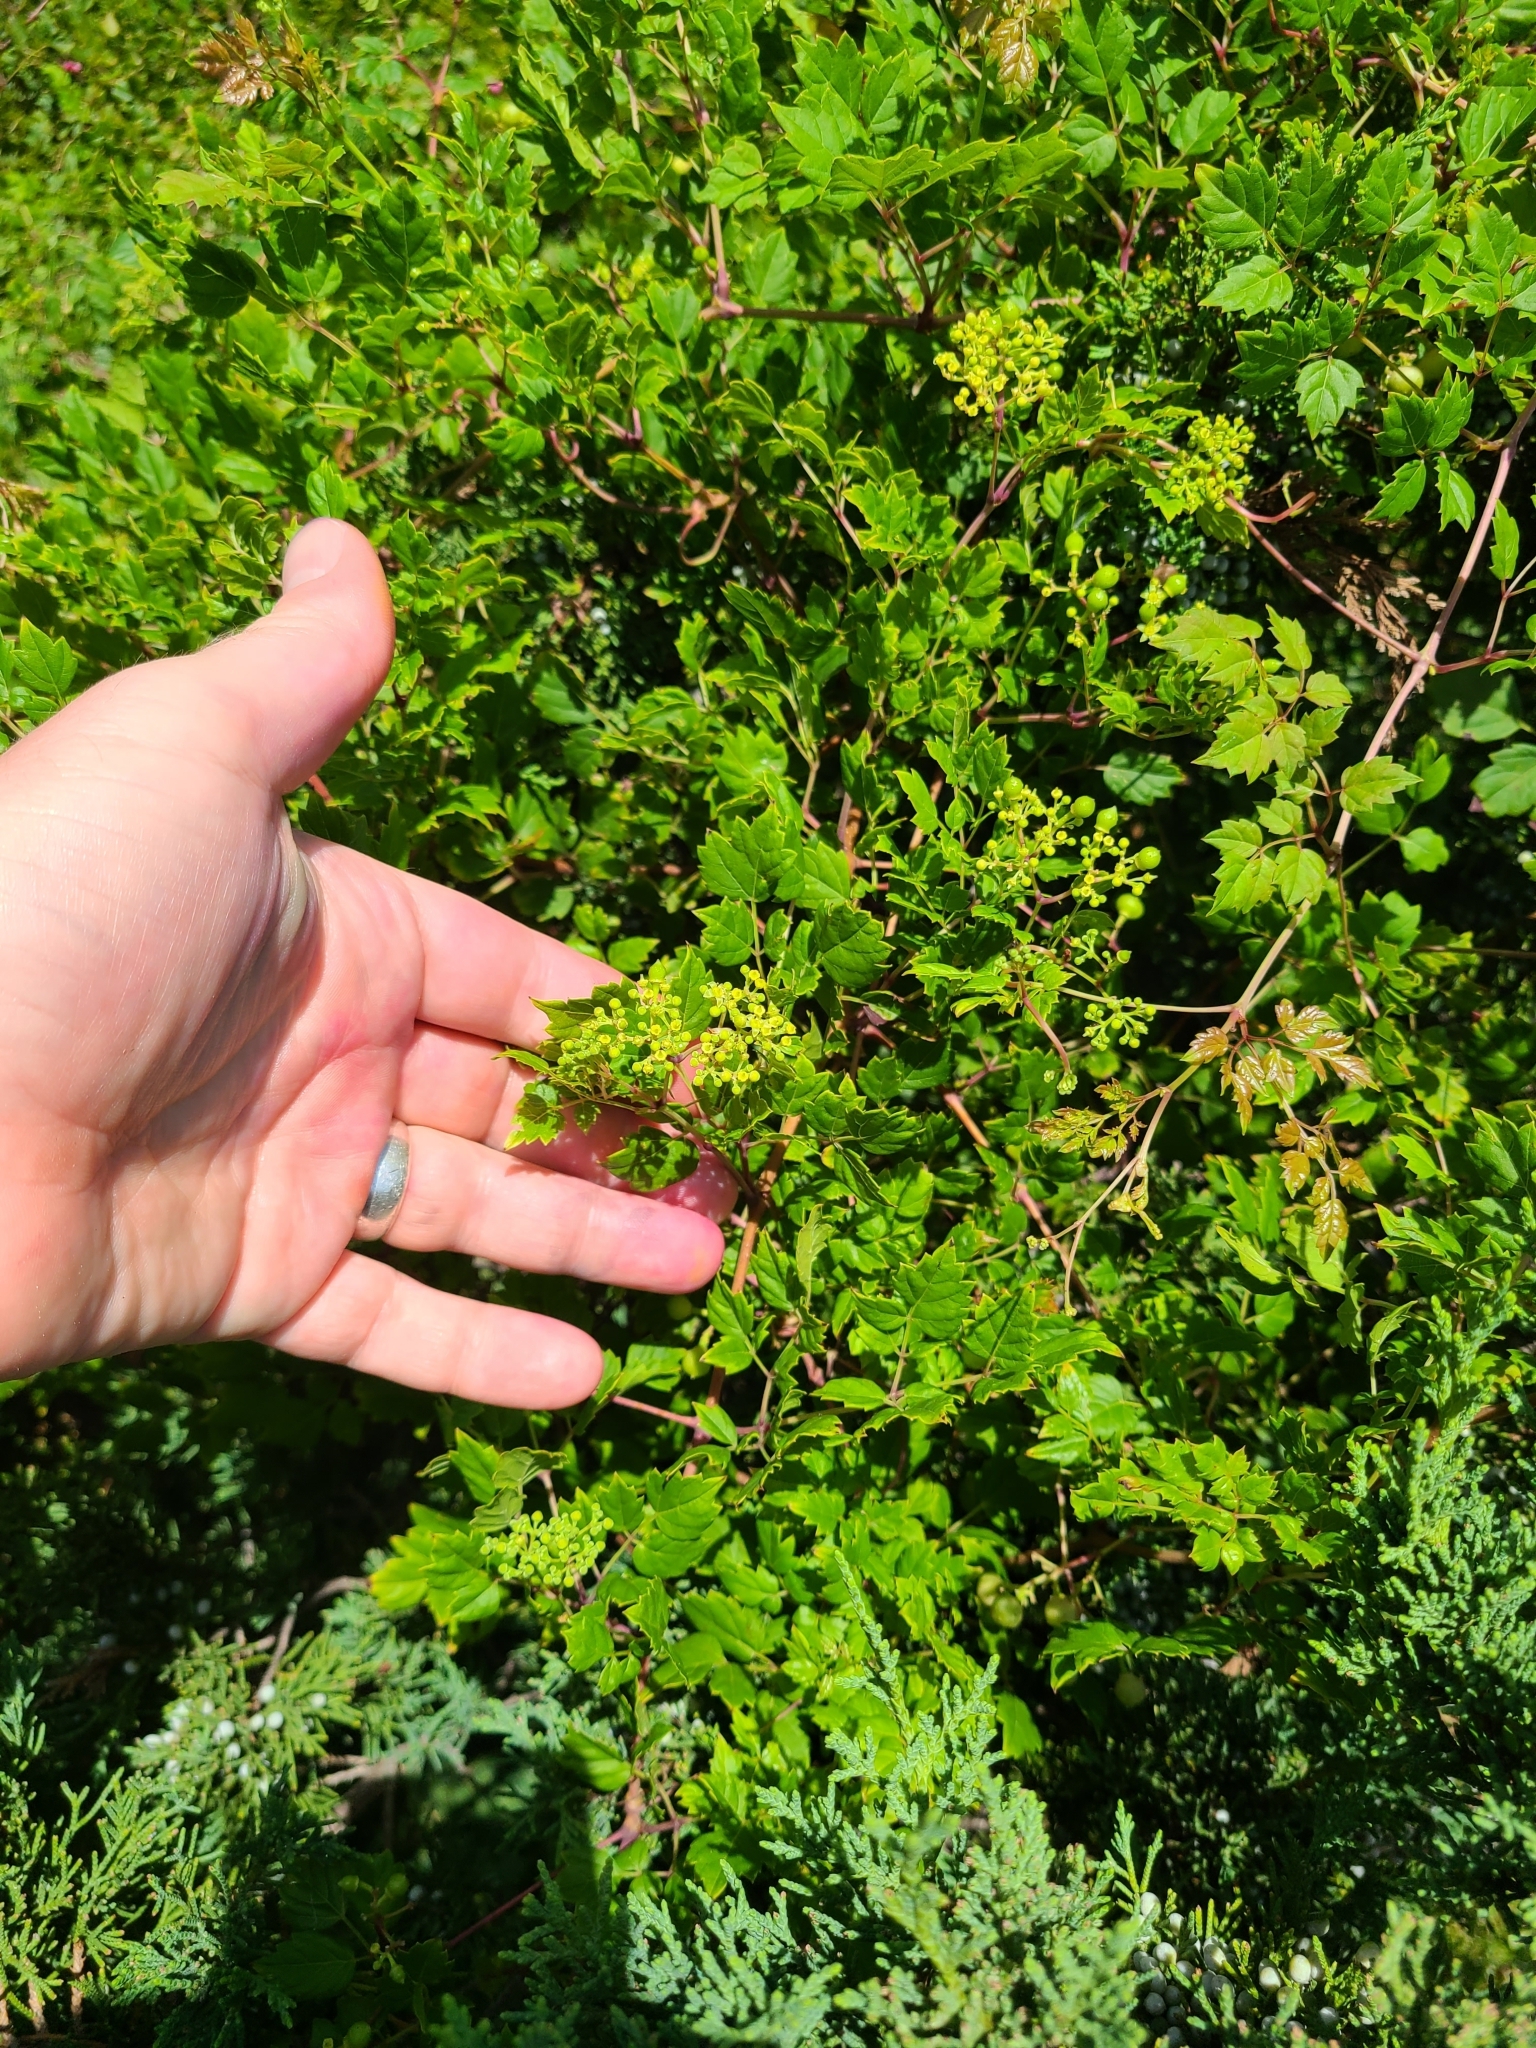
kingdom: Plantae
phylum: Tracheophyta
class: Magnoliopsida
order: Vitales
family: Vitaceae
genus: Nekemias
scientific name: Nekemias arborea
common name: Peppervine
